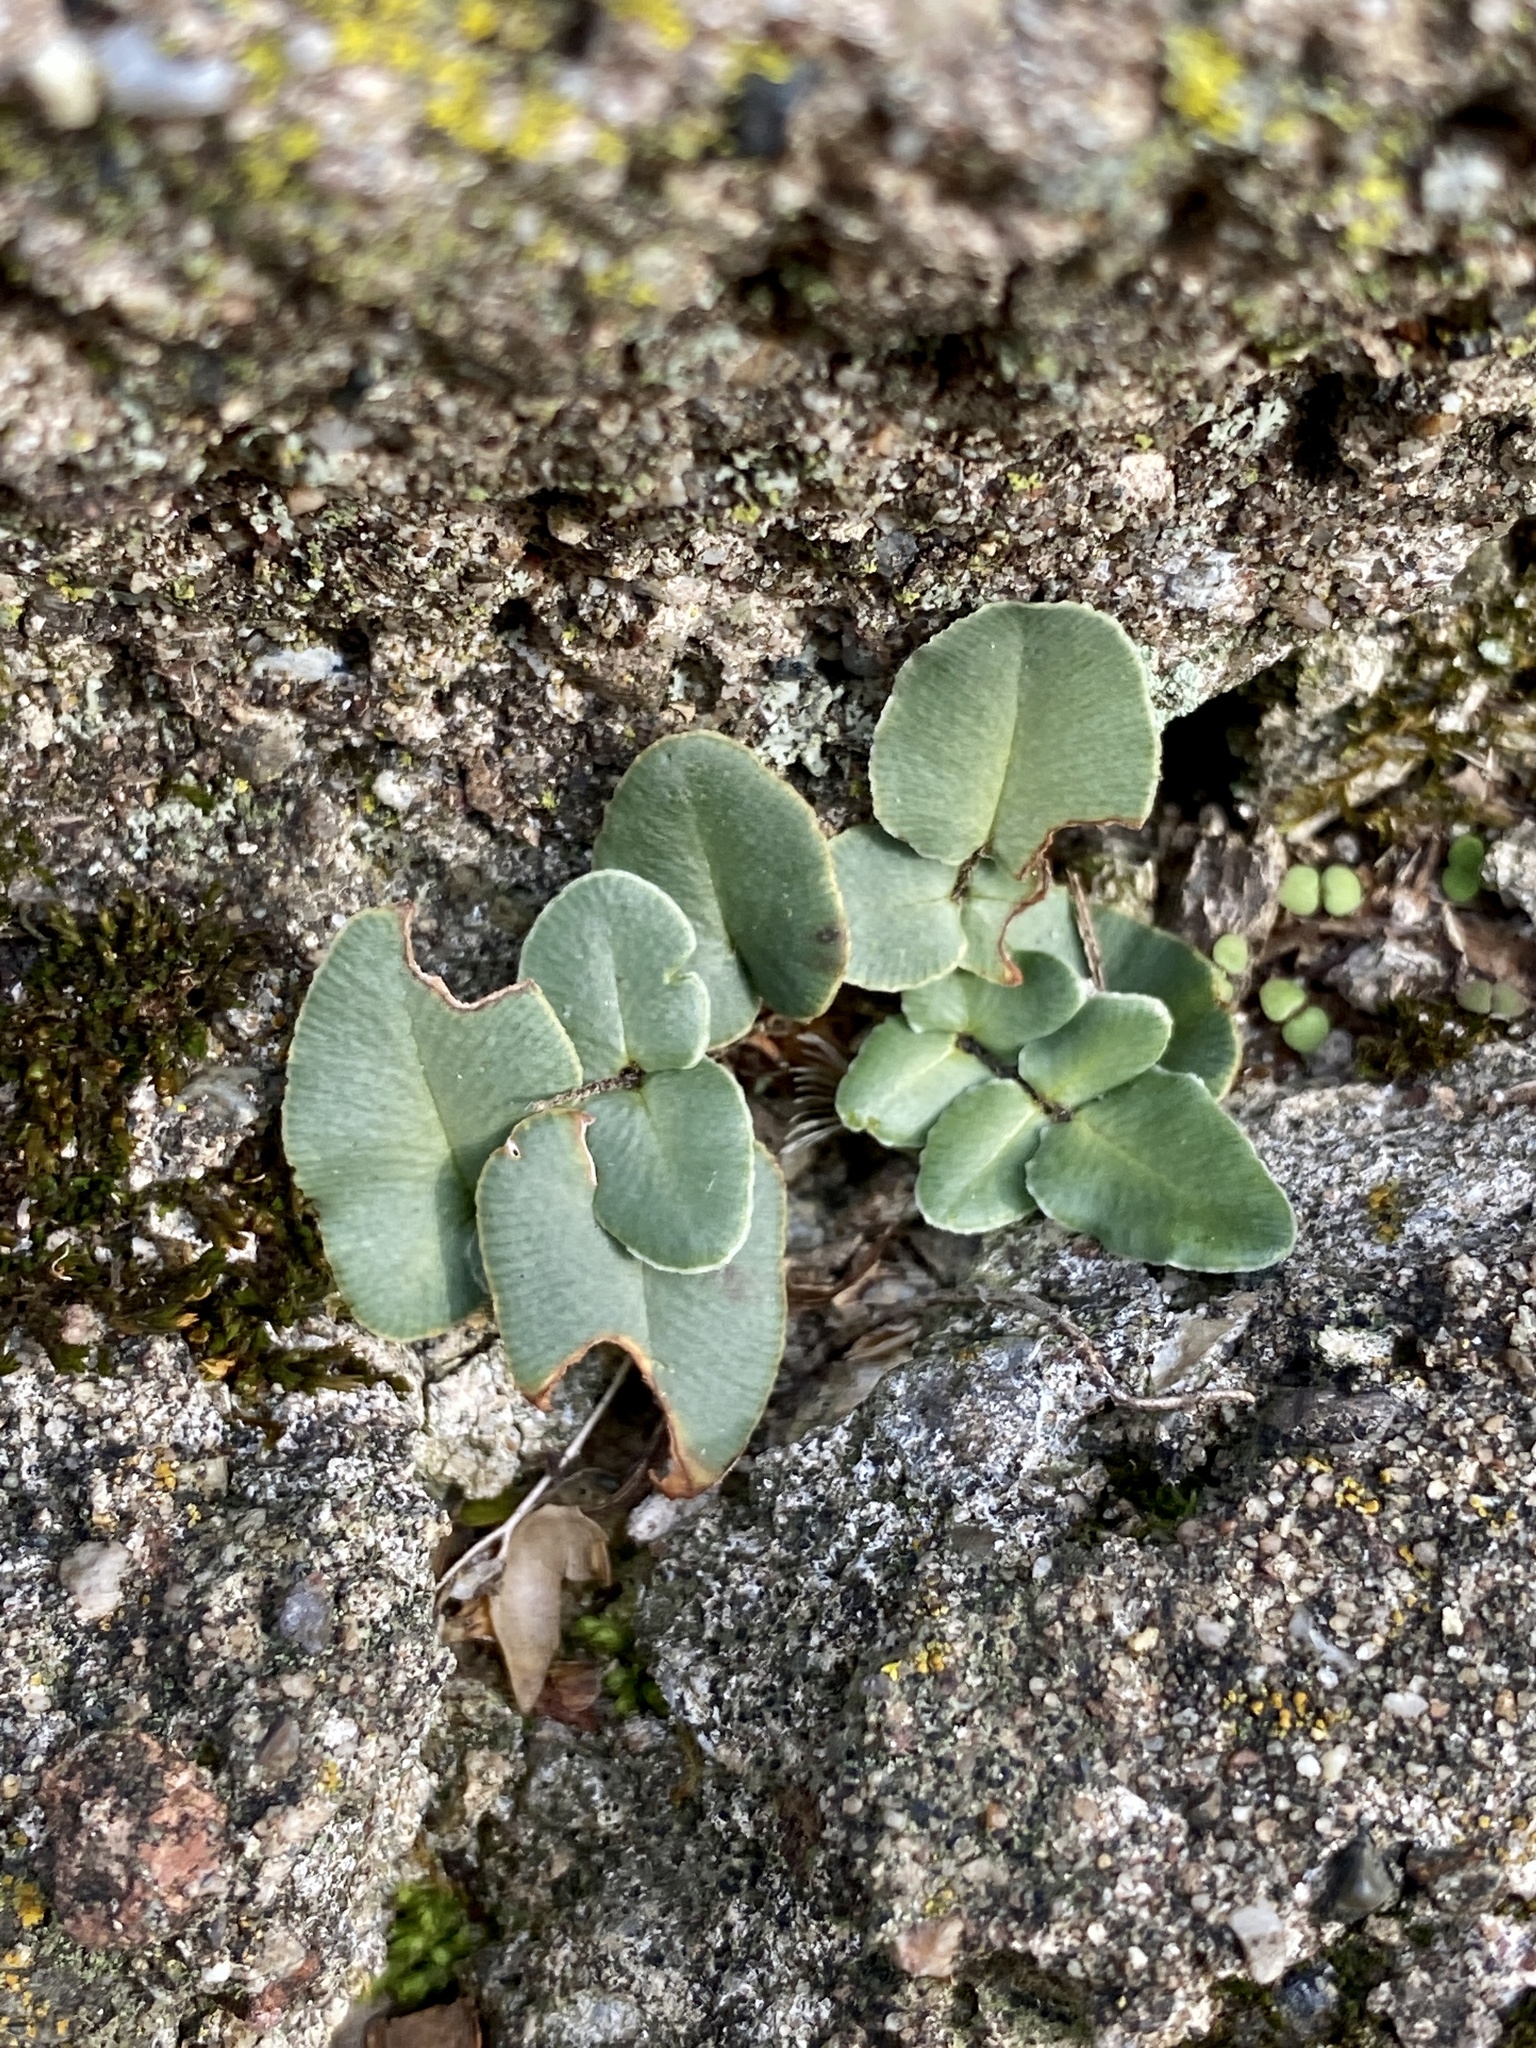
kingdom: Plantae
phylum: Tracheophyta
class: Polypodiopsida
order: Polypodiales
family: Pteridaceae
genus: Pellaea
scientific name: Pellaea atropurpurea
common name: Hairy cliffbrake
